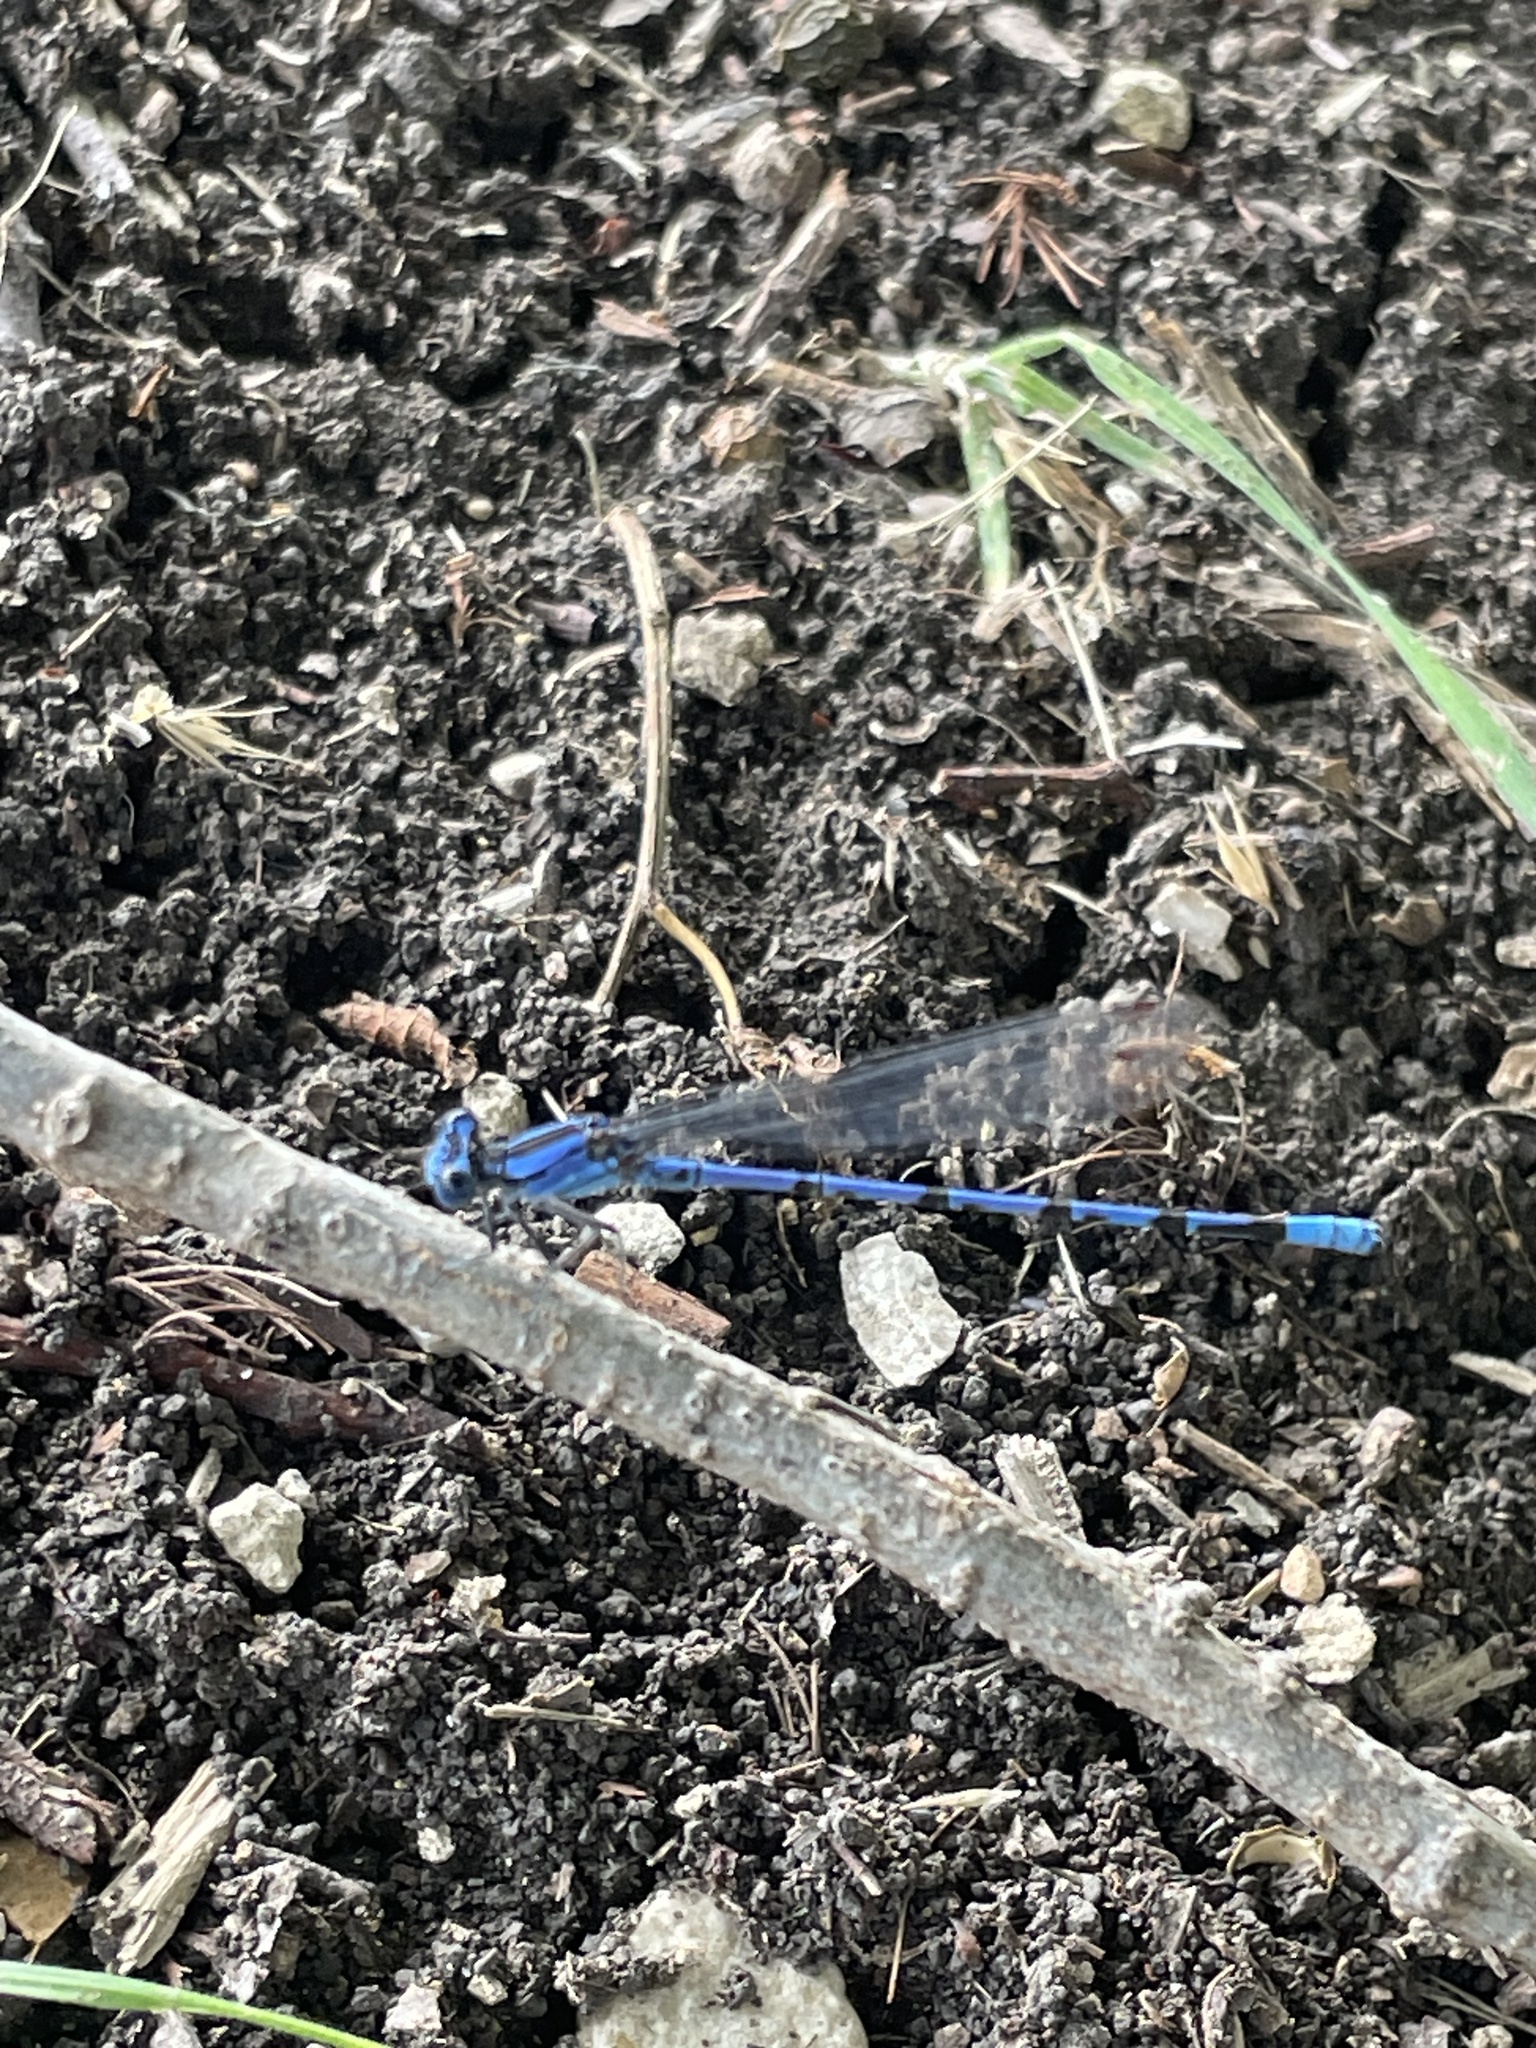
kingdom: Animalia
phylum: Arthropoda
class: Insecta
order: Odonata
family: Coenagrionidae
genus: Argia
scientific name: Argia funebris
